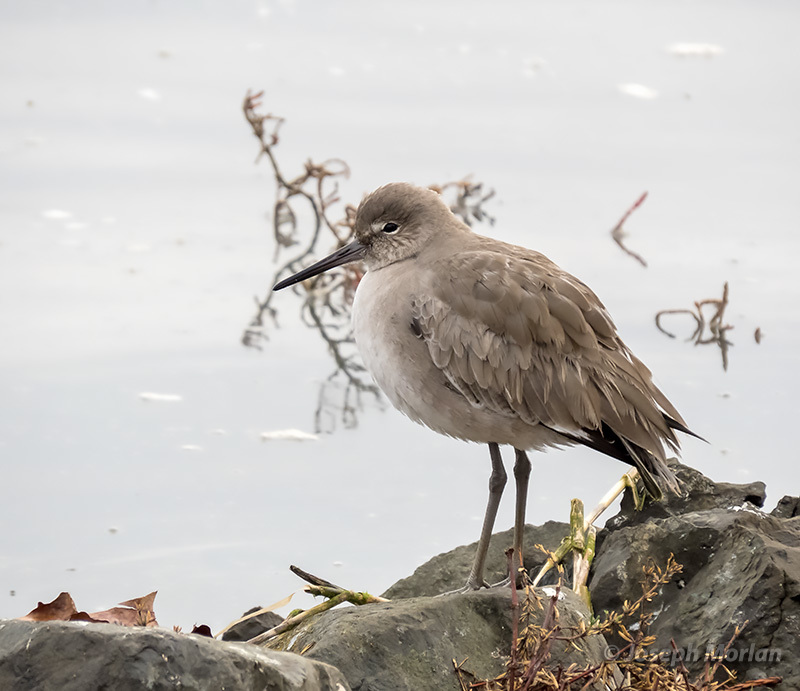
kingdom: Animalia
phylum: Chordata
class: Aves
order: Charadriiformes
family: Scolopacidae
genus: Tringa
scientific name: Tringa semipalmata
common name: Willet
